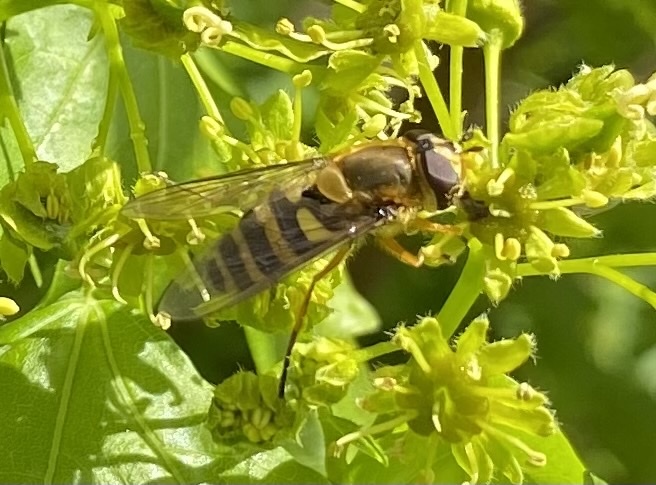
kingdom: Animalia
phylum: Arthropoda
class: Insecta
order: Diptera
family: Syrphidae
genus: Syrphus
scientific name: Syrphus ribesii
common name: Common flower fly
